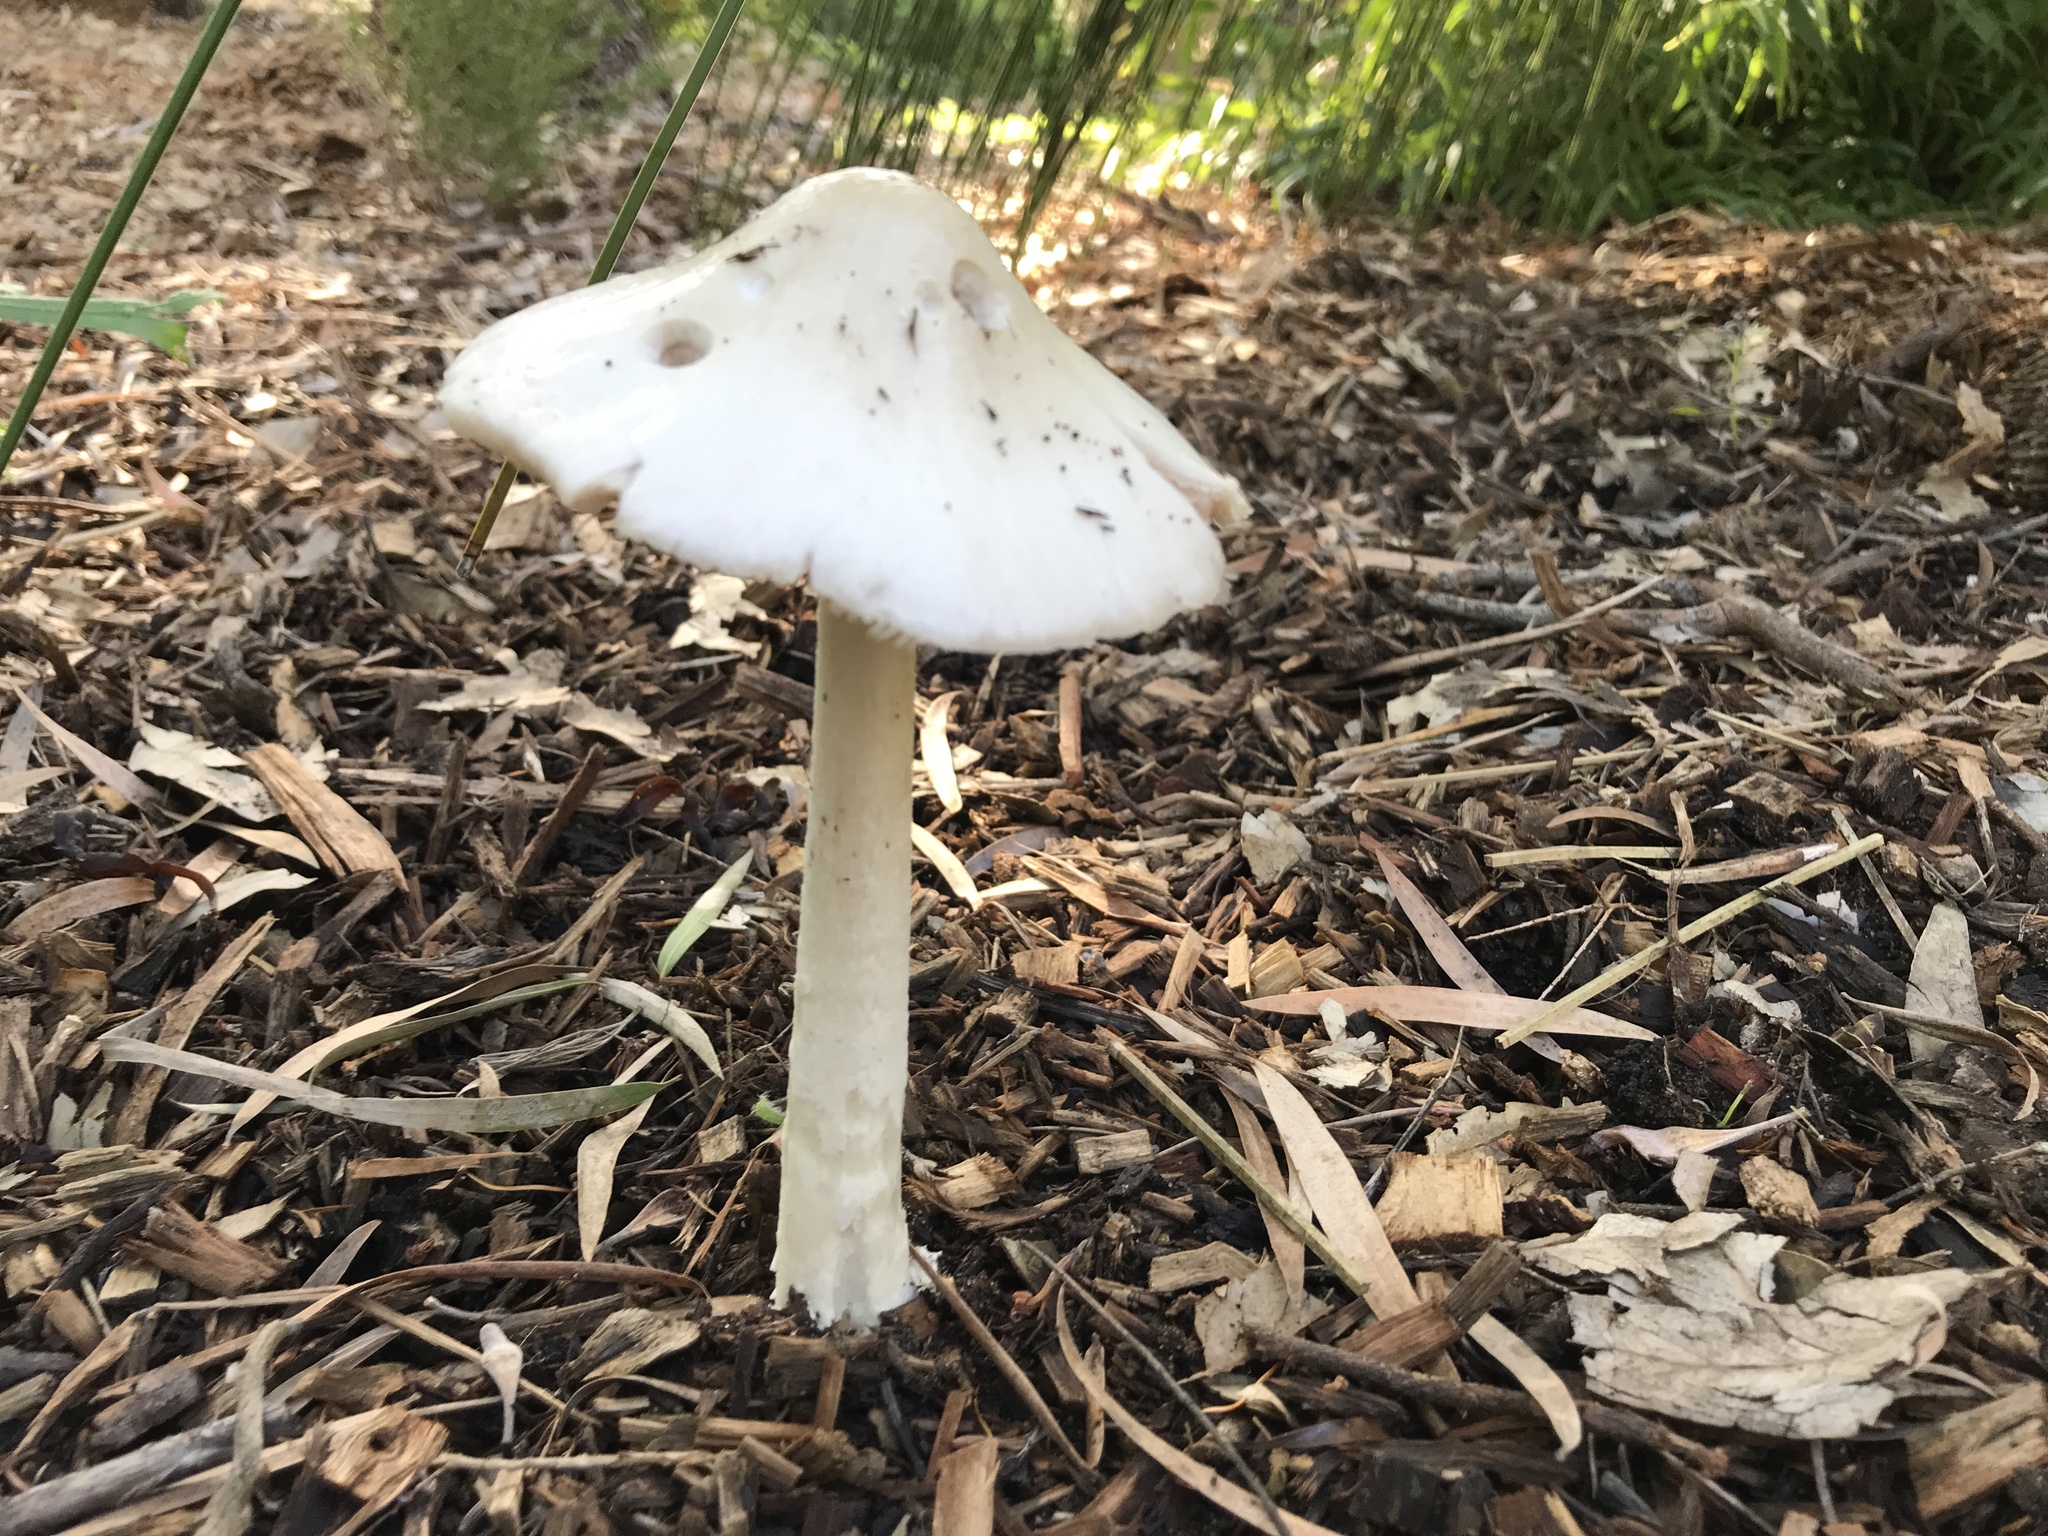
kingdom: Fungi
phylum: Basidiomycota
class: Agaricomycetes
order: Agaricales
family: Pluteaceae
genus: Volvopluteus
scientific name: Volvopluteus gloiocephalus
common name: Stubble rosegill
